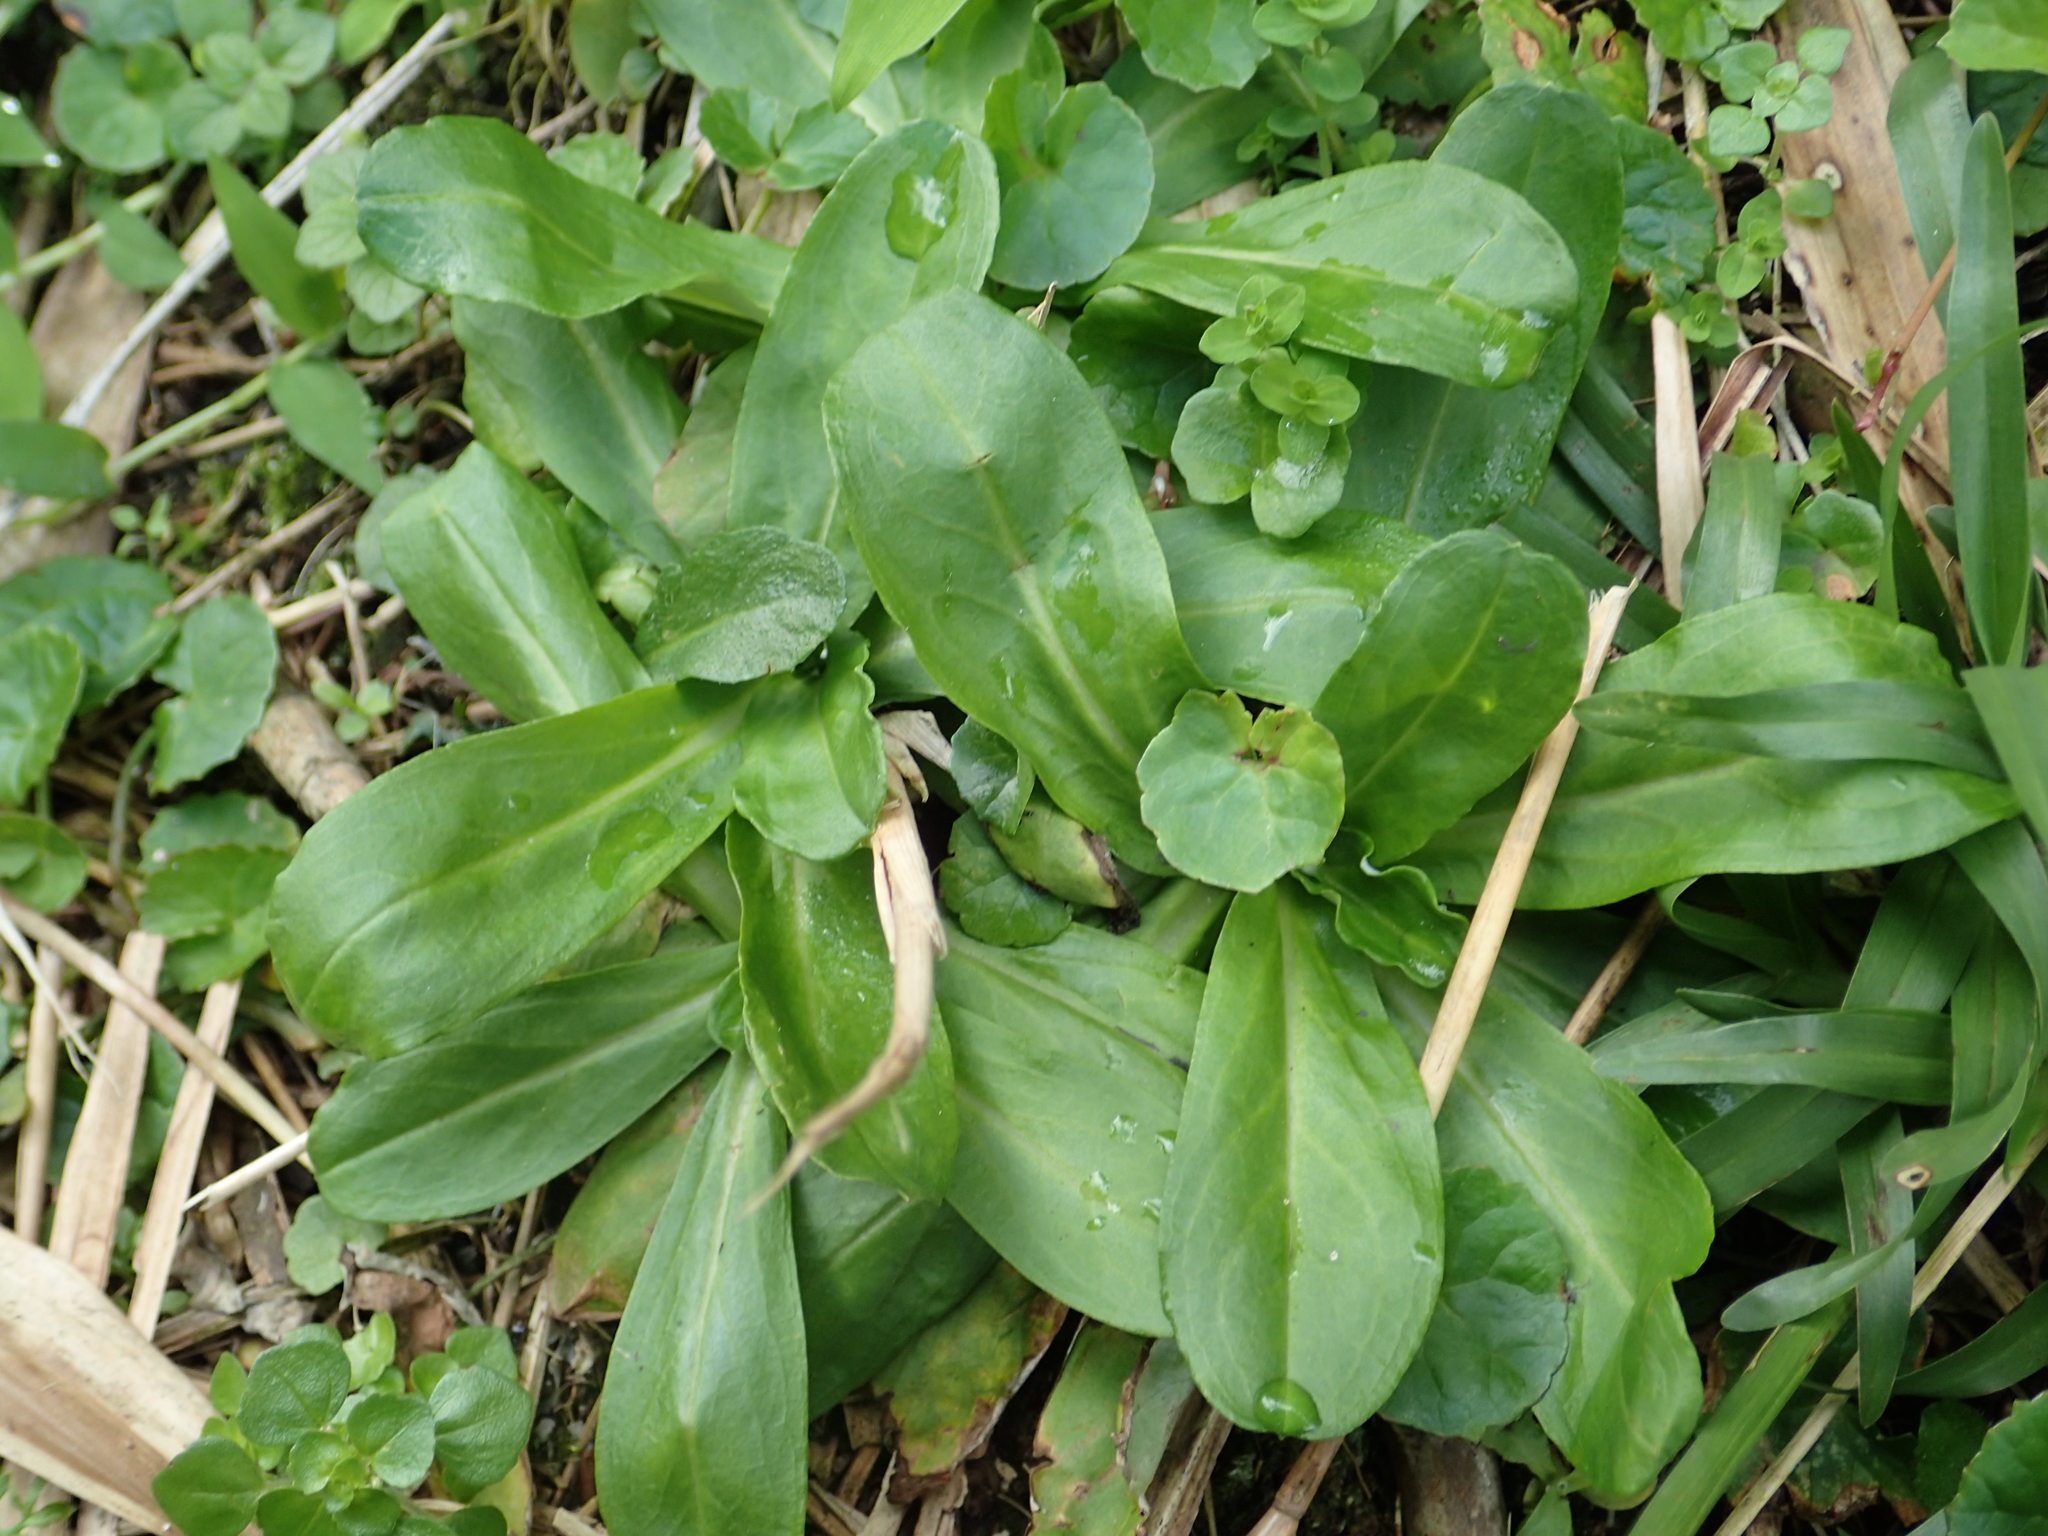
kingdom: Plantae
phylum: Tracheophyta
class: Magnoliopsida
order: Asterales
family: Asteraceae
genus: Gamochaeta
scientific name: Gamochaeta americana
